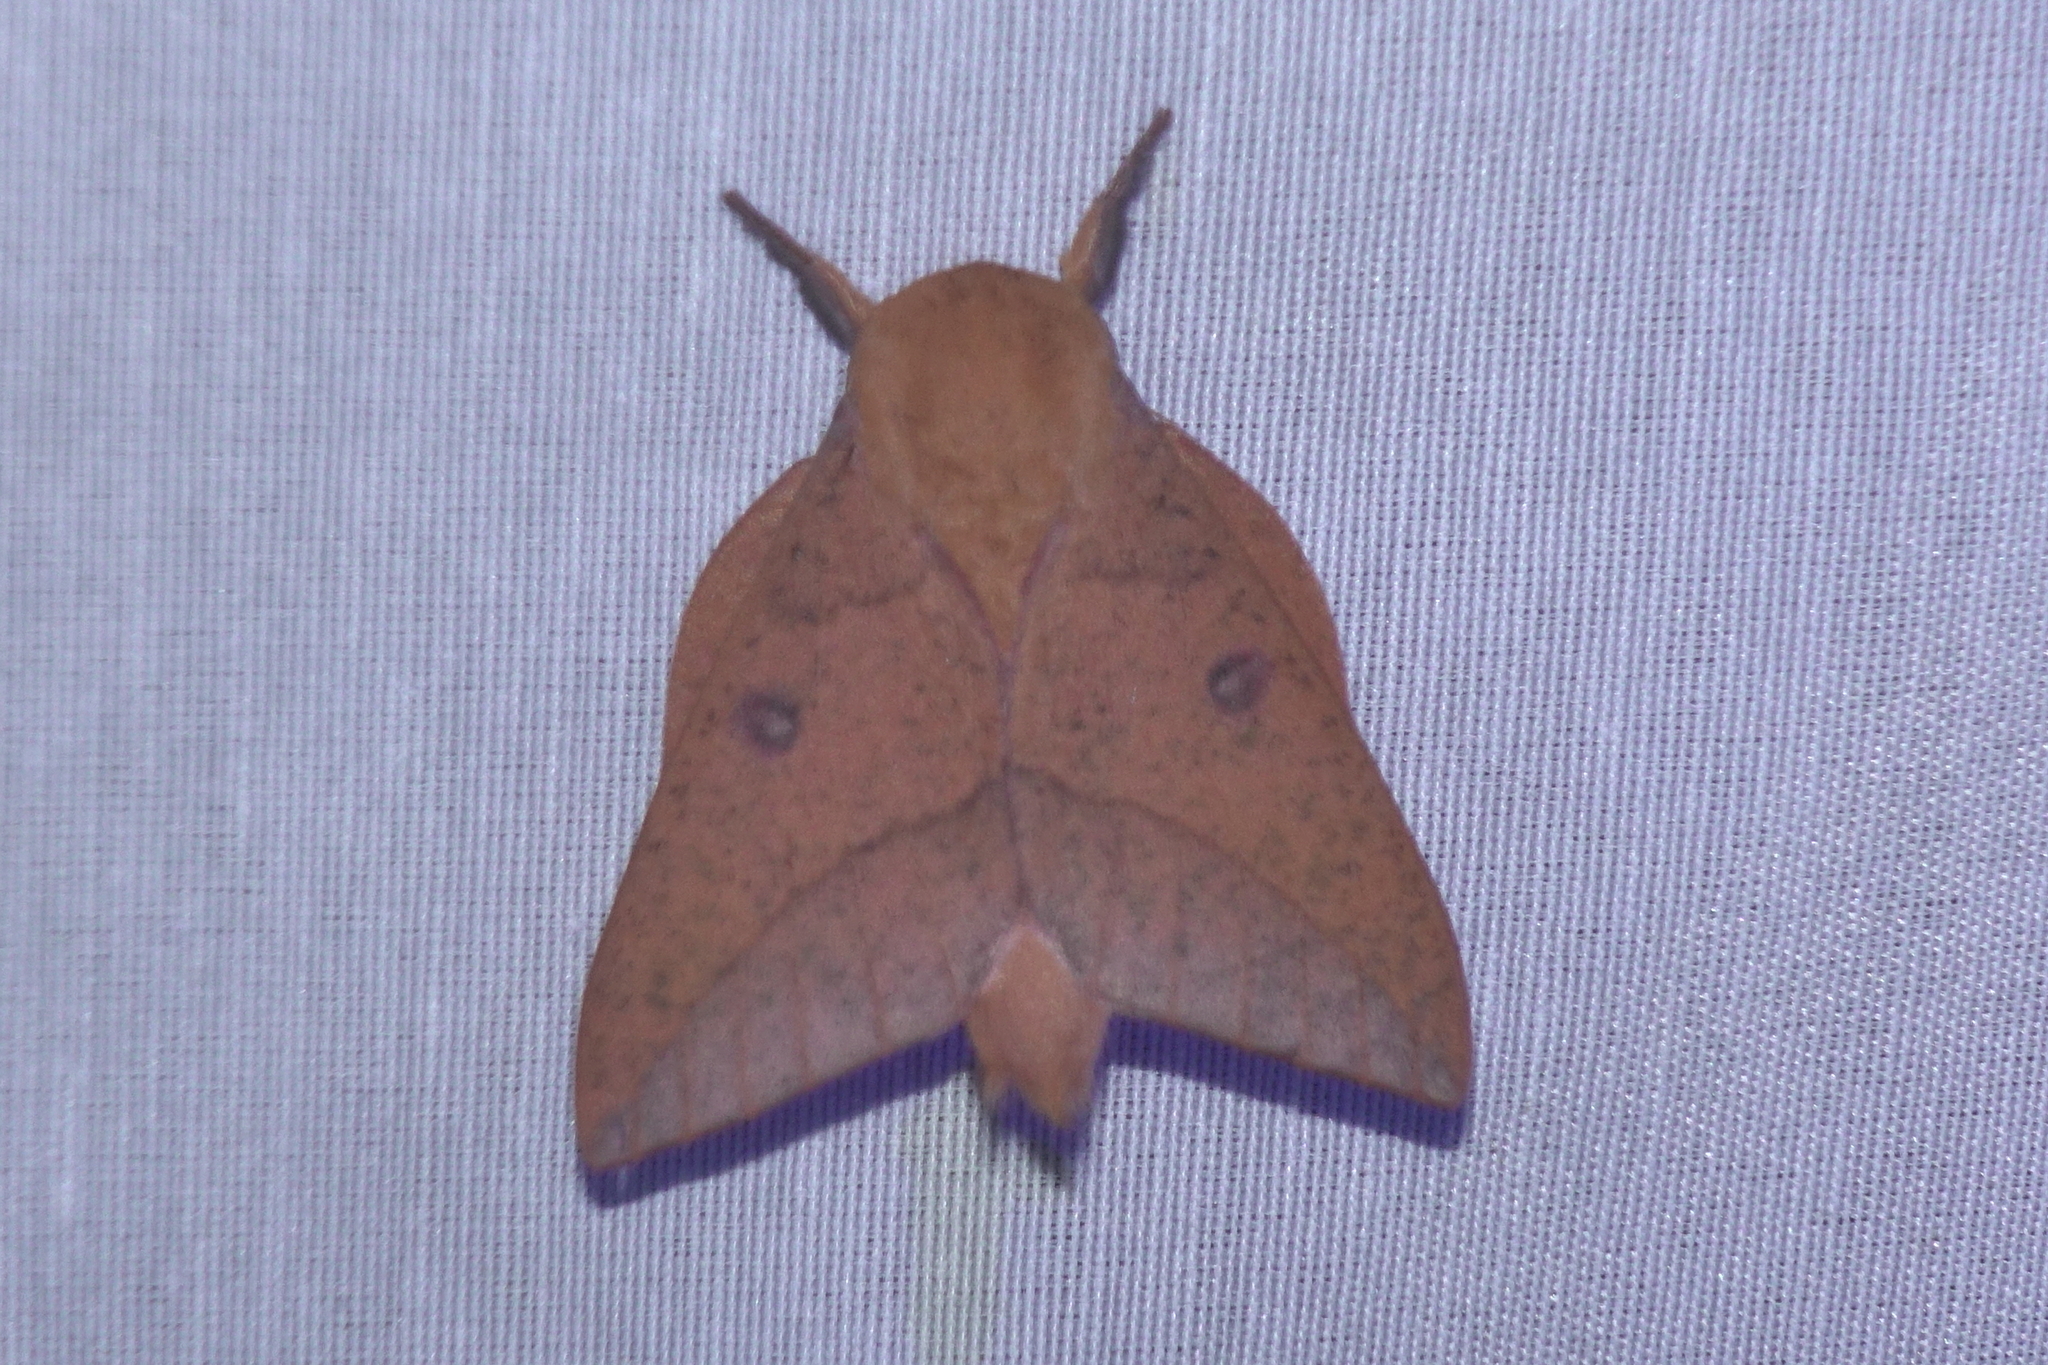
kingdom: Animalia
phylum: Arthropoda
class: Insecta
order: Lepidoptera
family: Saturniidae
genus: Adeloneivaia
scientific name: Adeloneivaia subangulata
